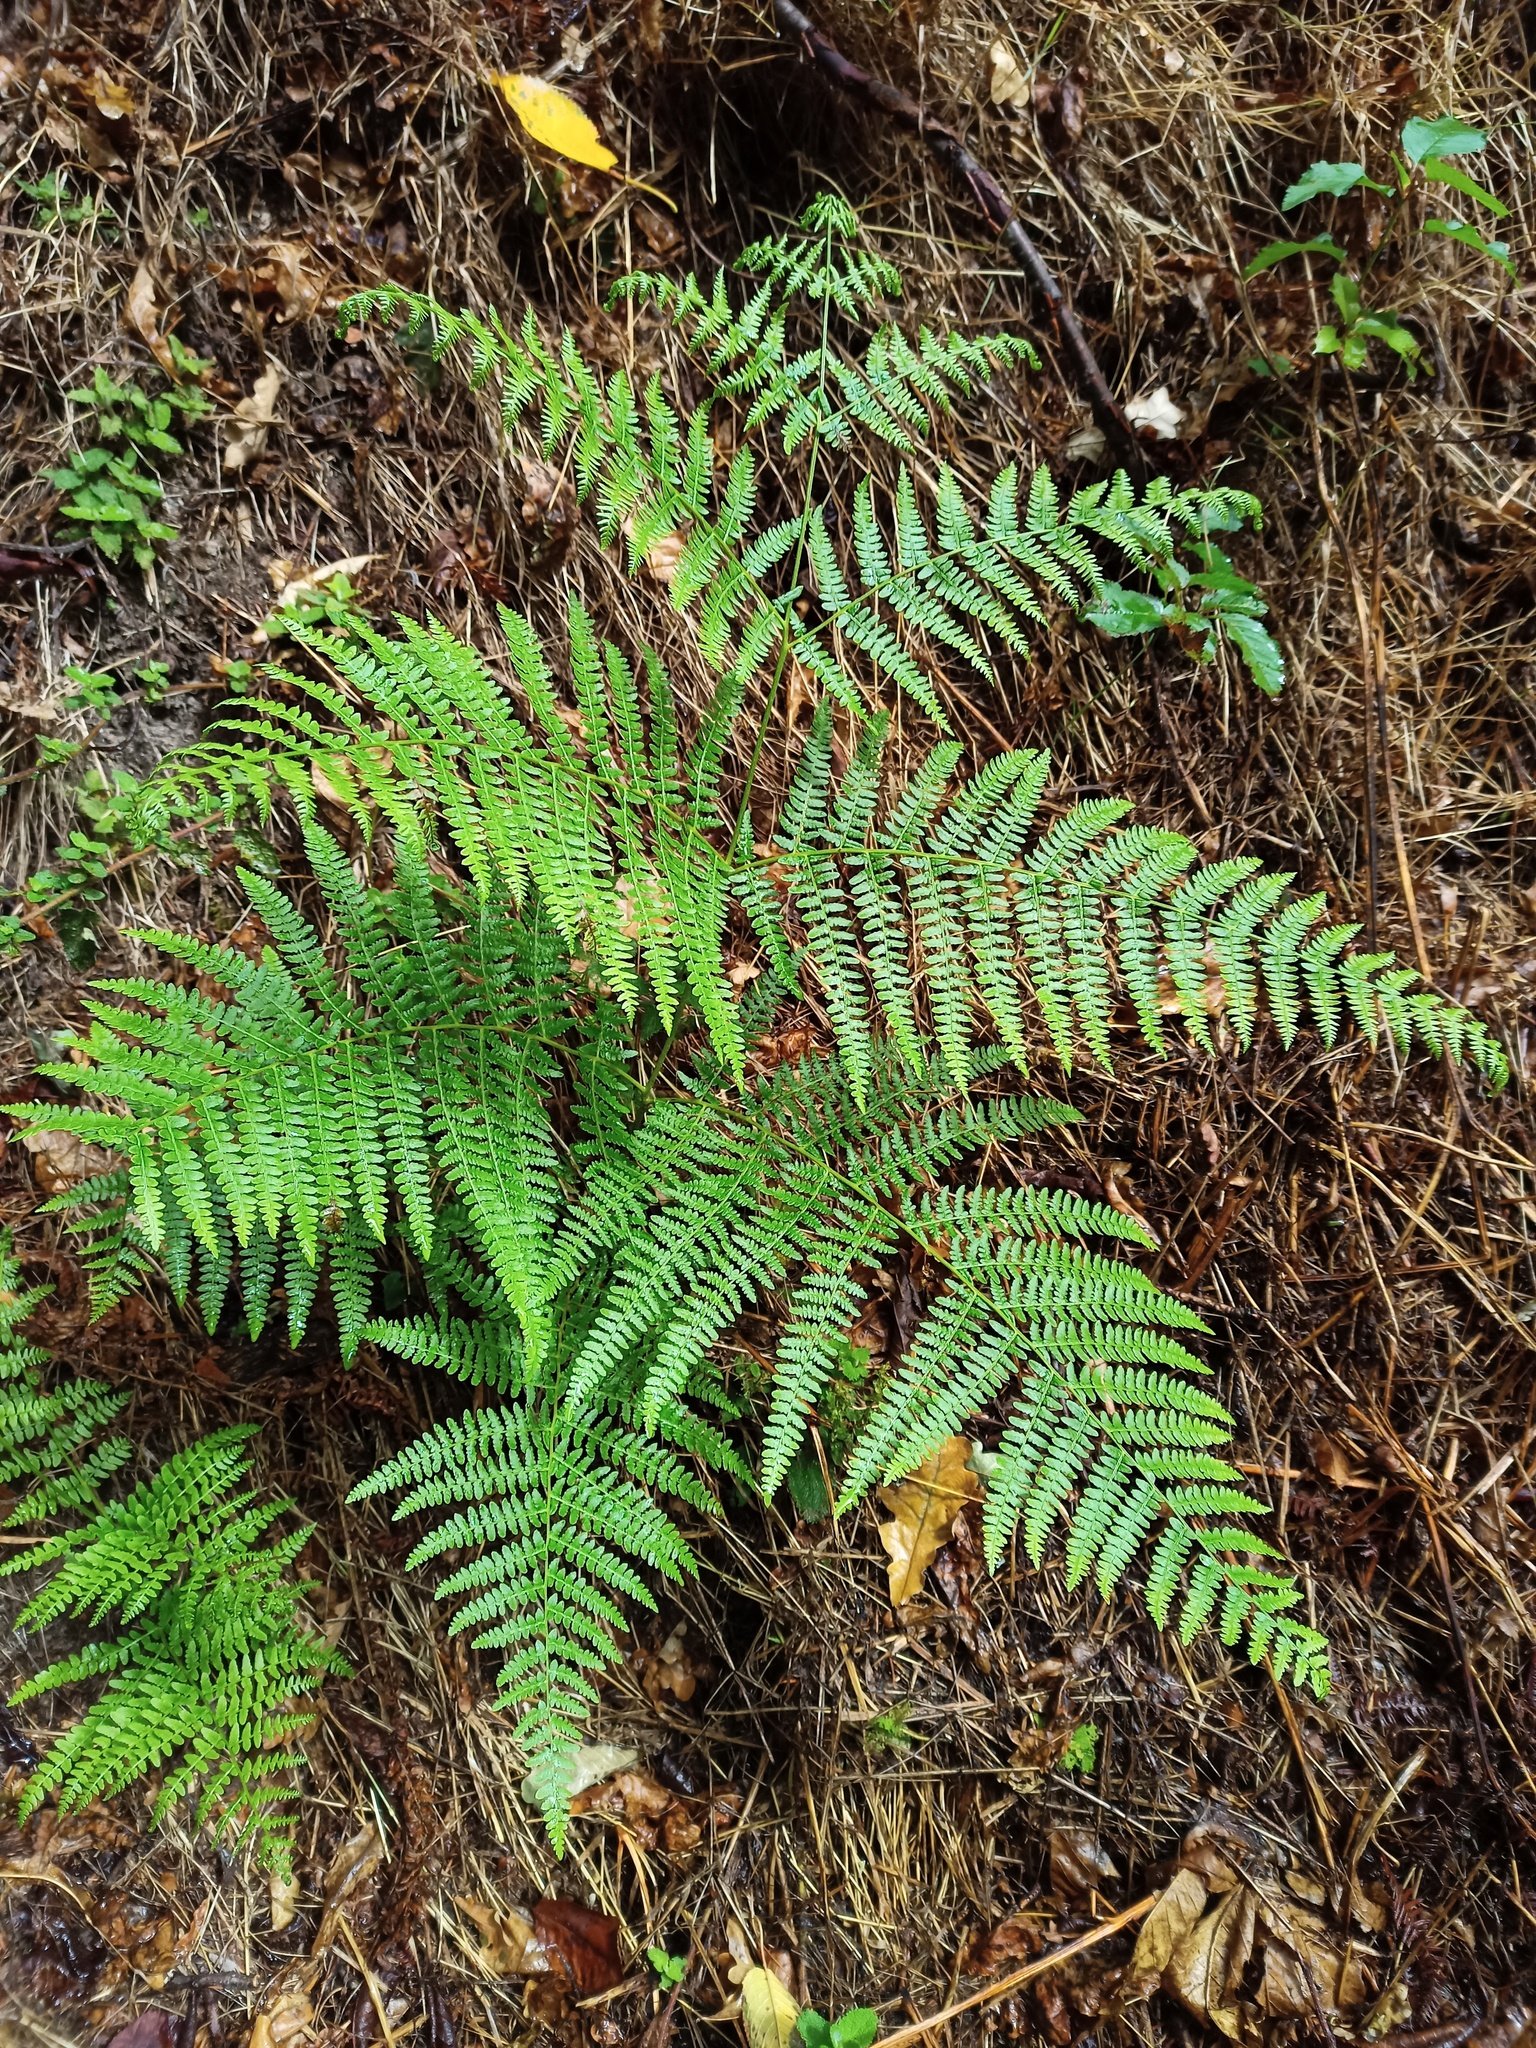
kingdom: Plantae
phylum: Tracheophyta
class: Polypodiopsida
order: Polypodiales
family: Dennstaedtiaceae
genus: Pteridium
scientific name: Pteridium aquilinum
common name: Bracken
